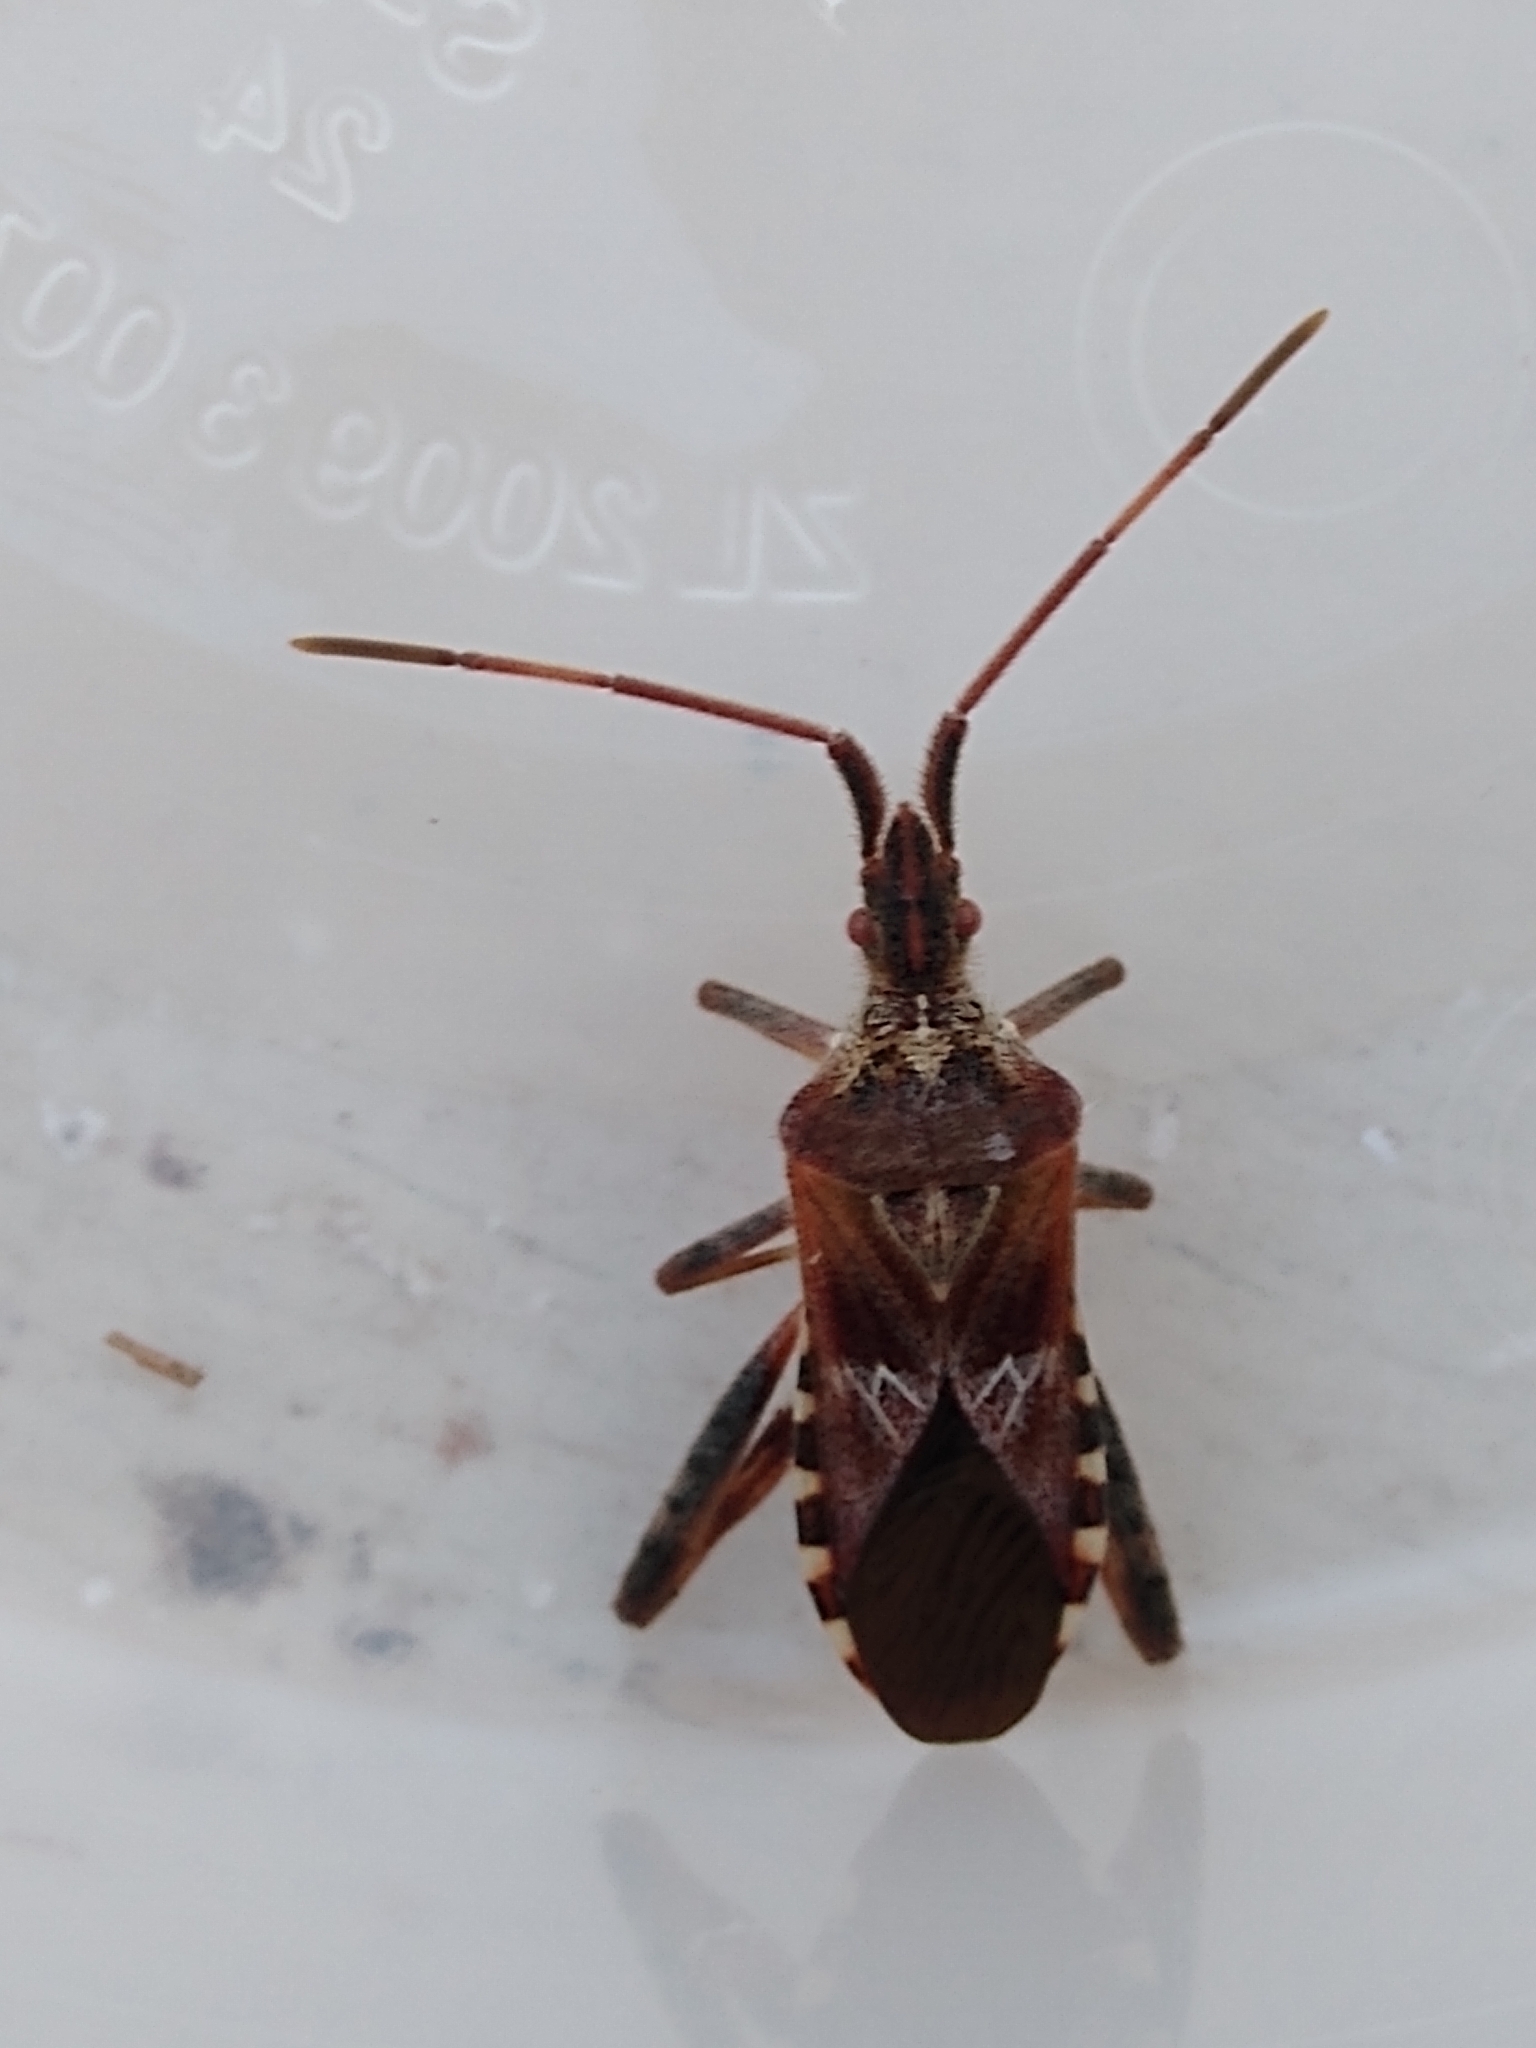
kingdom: Animalia
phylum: Arthropoda
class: Insecta
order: Hemiptera
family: Coreidae
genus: Leptoglossus
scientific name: Leptoglossus occidentalis
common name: Western conifer-seed bug
